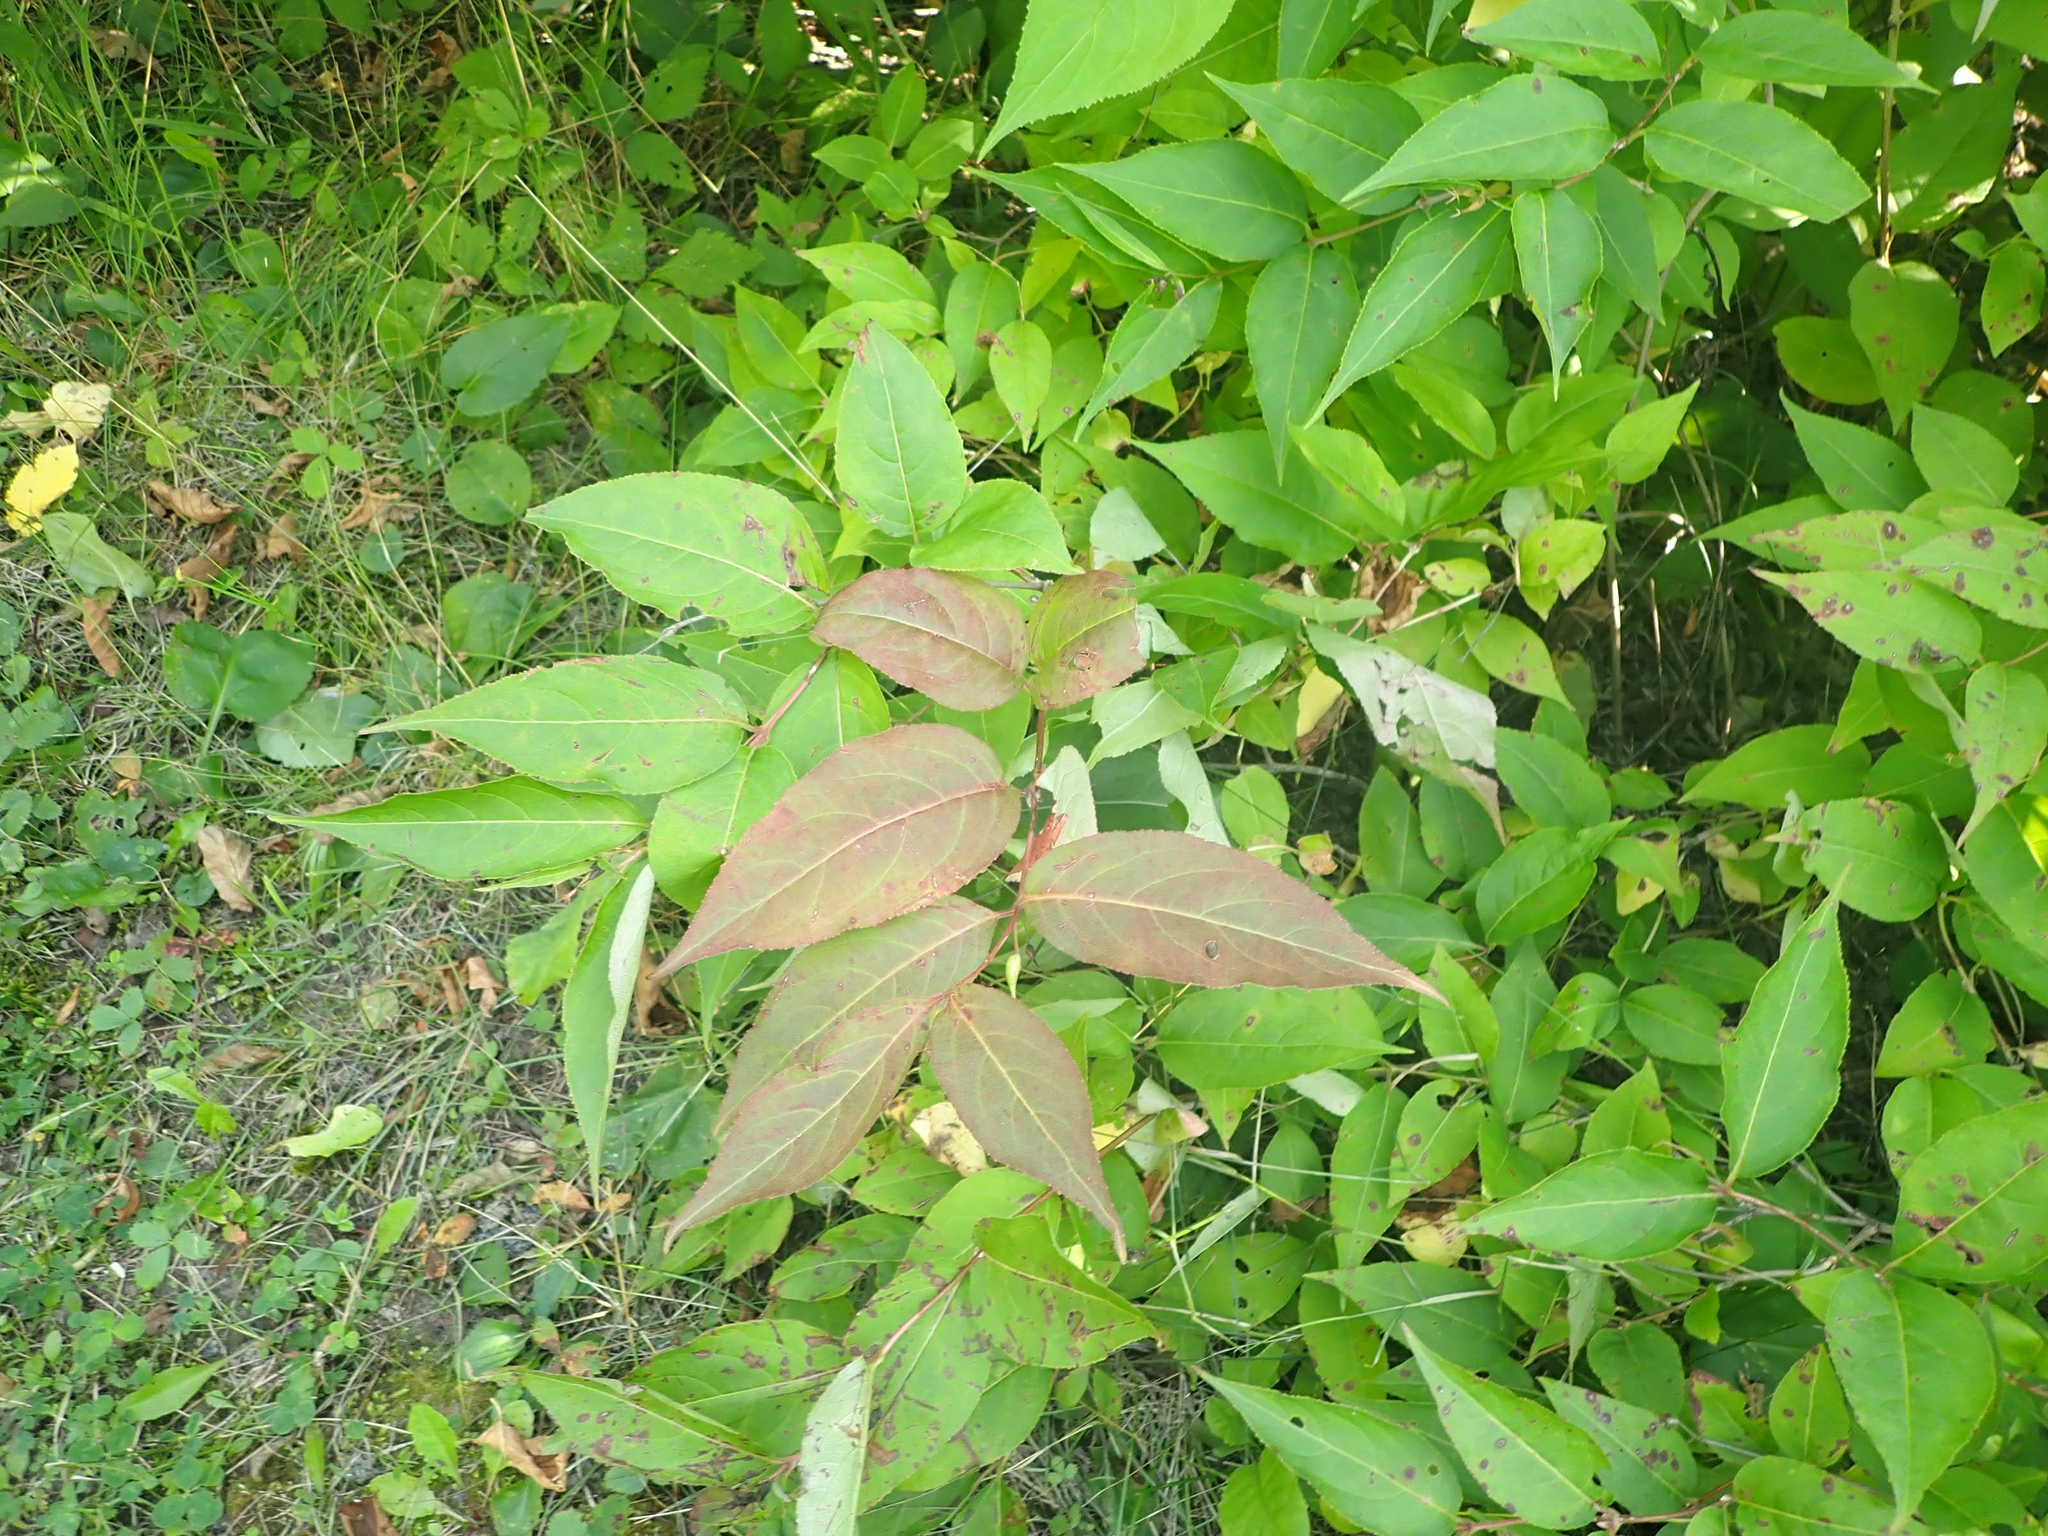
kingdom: Plantae
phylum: Tracheophyta
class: Magnoliopsida
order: Dipsacales
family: Caprifoliaceae
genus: Diervilla
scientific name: Diervilla lonicera
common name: Bush-honeysuckle
